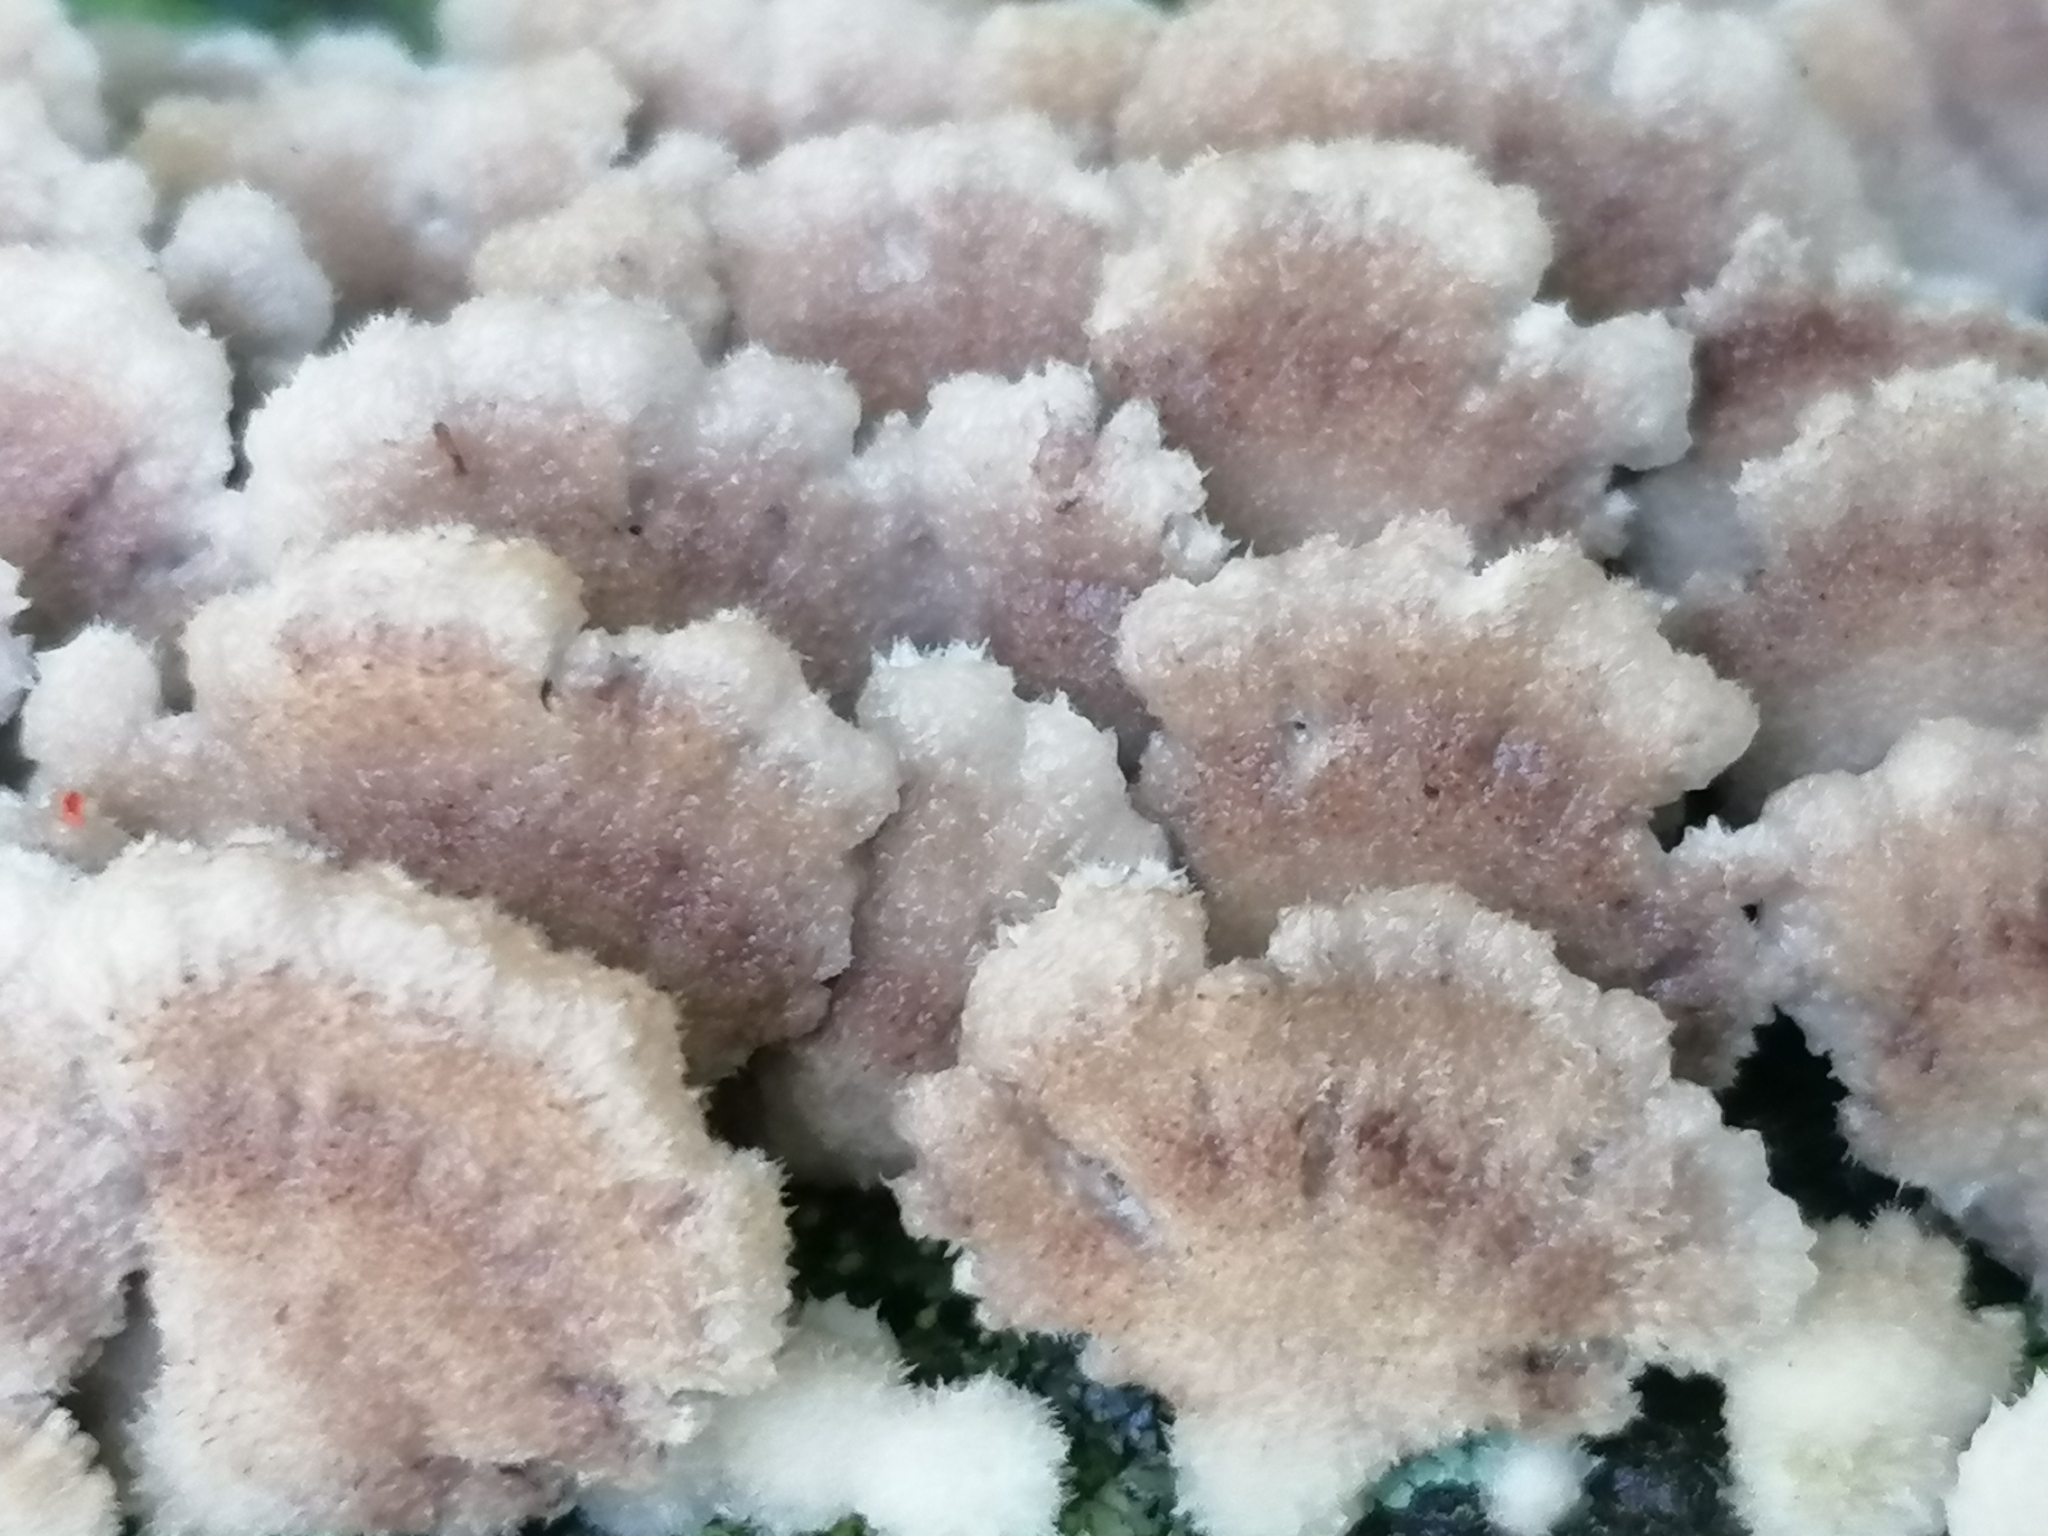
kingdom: Fungi
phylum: Basidiomycota
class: Agaricomycetes
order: Agaricales
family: Schizophyllaceae
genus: Schizophyllum
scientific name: Schizophyllum commune
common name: Common porecrust
